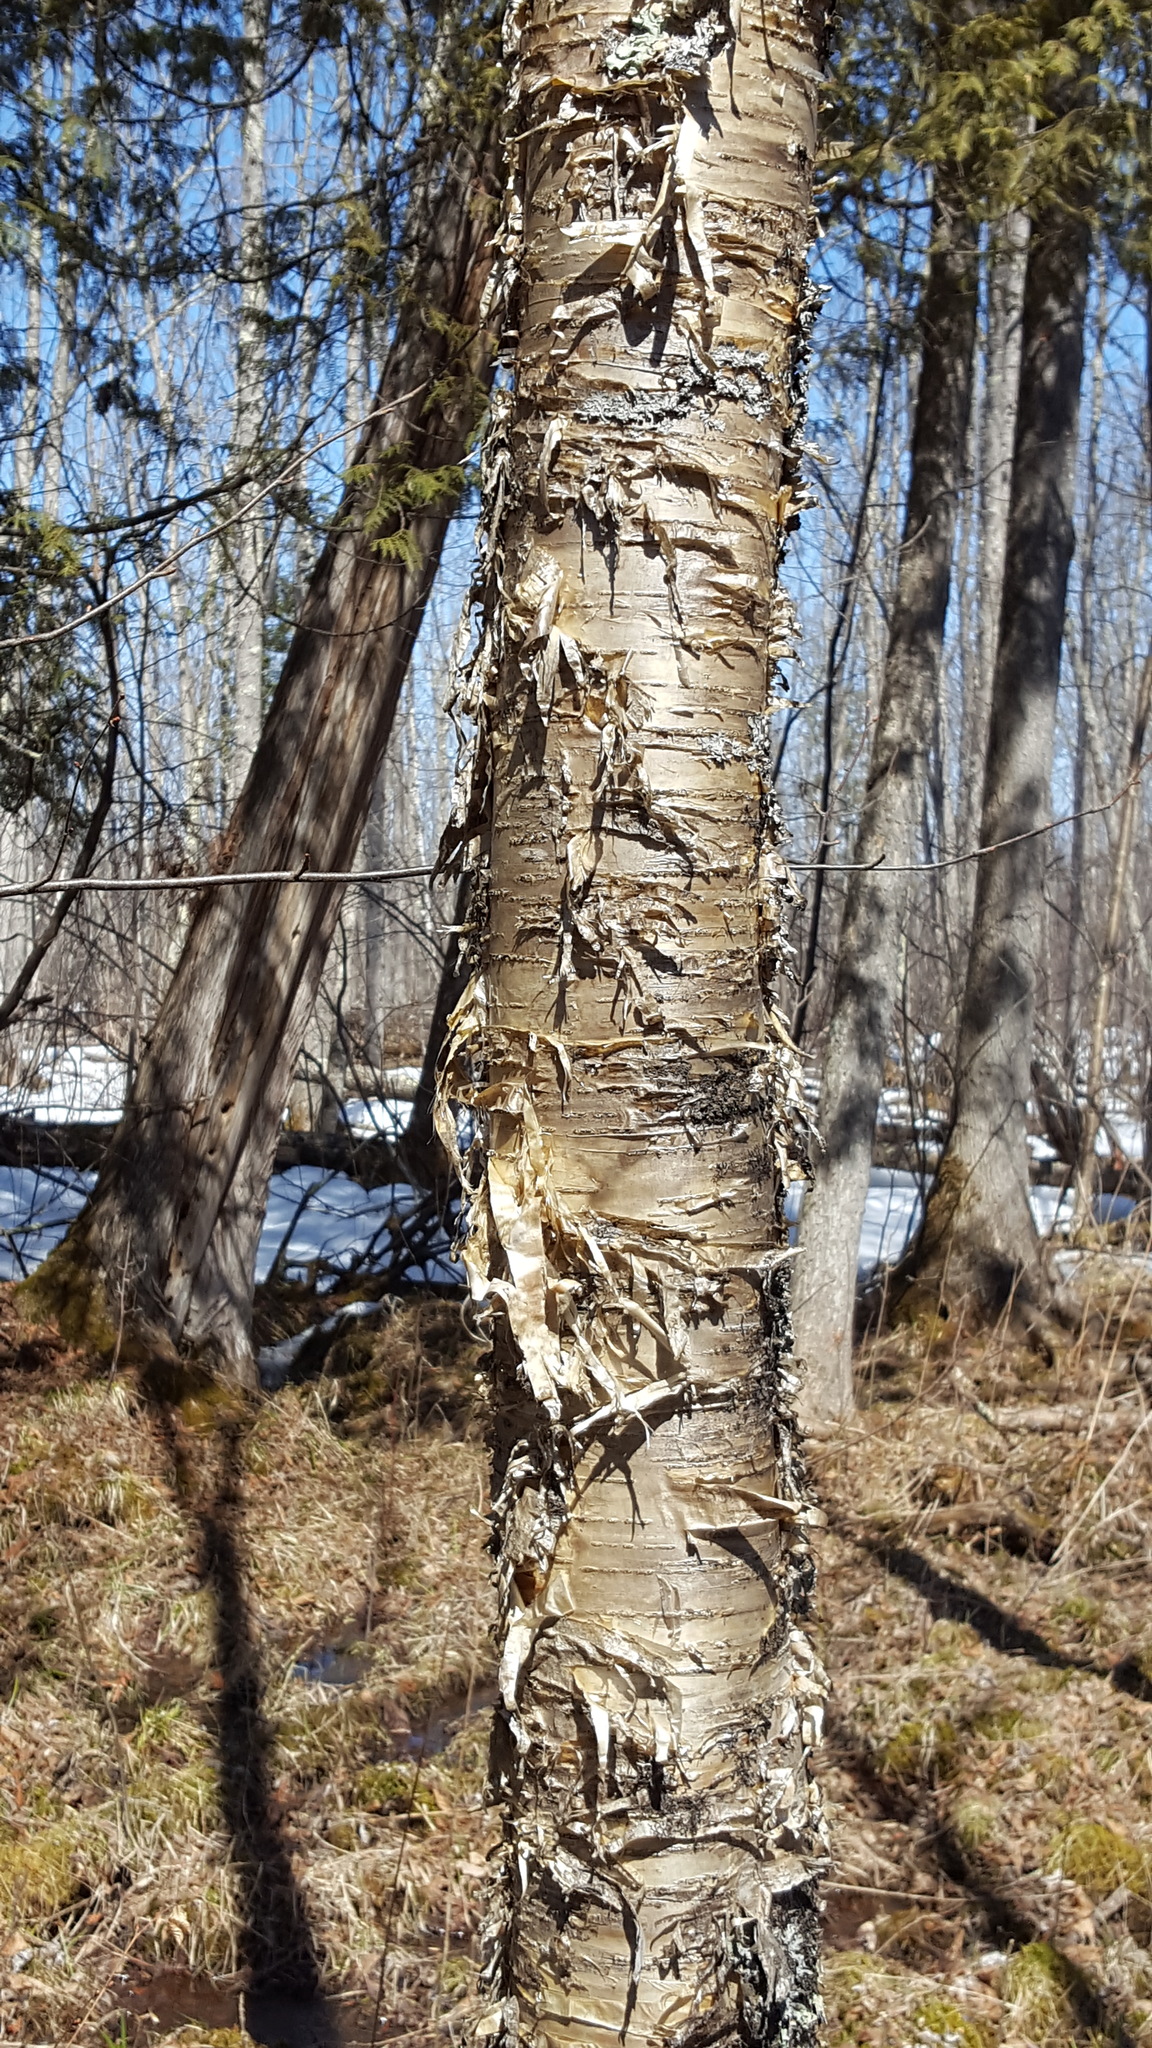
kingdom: Plantae
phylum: Tracheophyta
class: Magnoliopsida
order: Fagales
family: Betulaceae
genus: Betula
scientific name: Betula alleghaniensis
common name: Yellow birch
